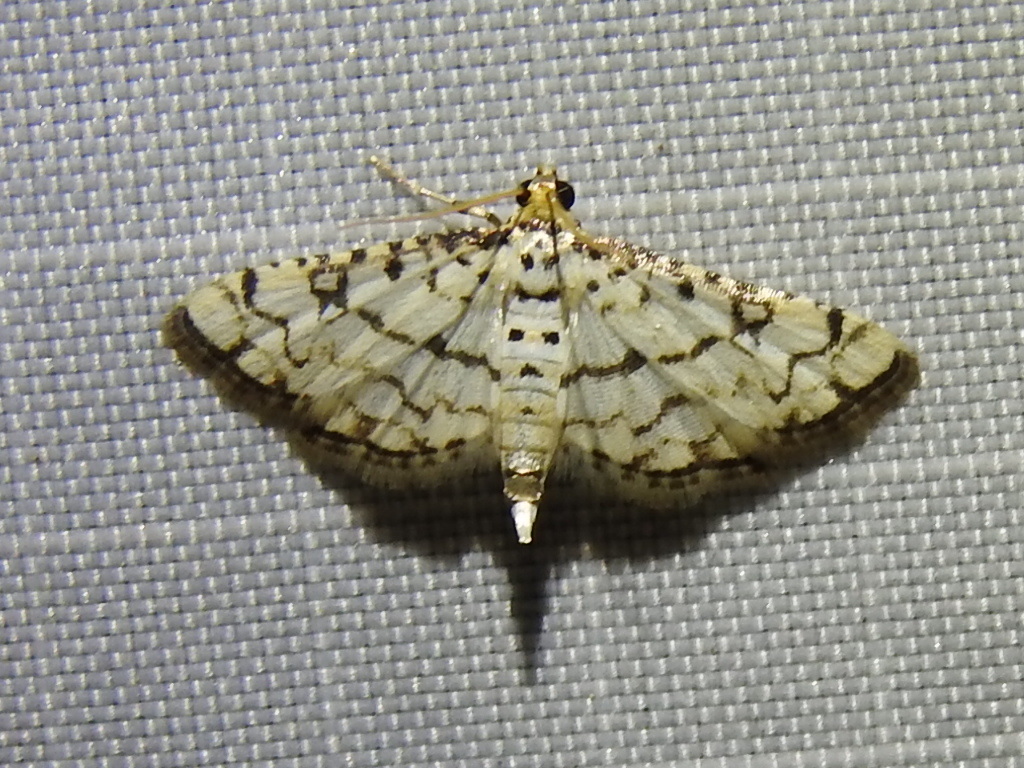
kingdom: Animalia
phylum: Arthropoda
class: Insecta
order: Lepidoptera
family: Crambidae
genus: Hileithia
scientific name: Hileithia rehamalis
